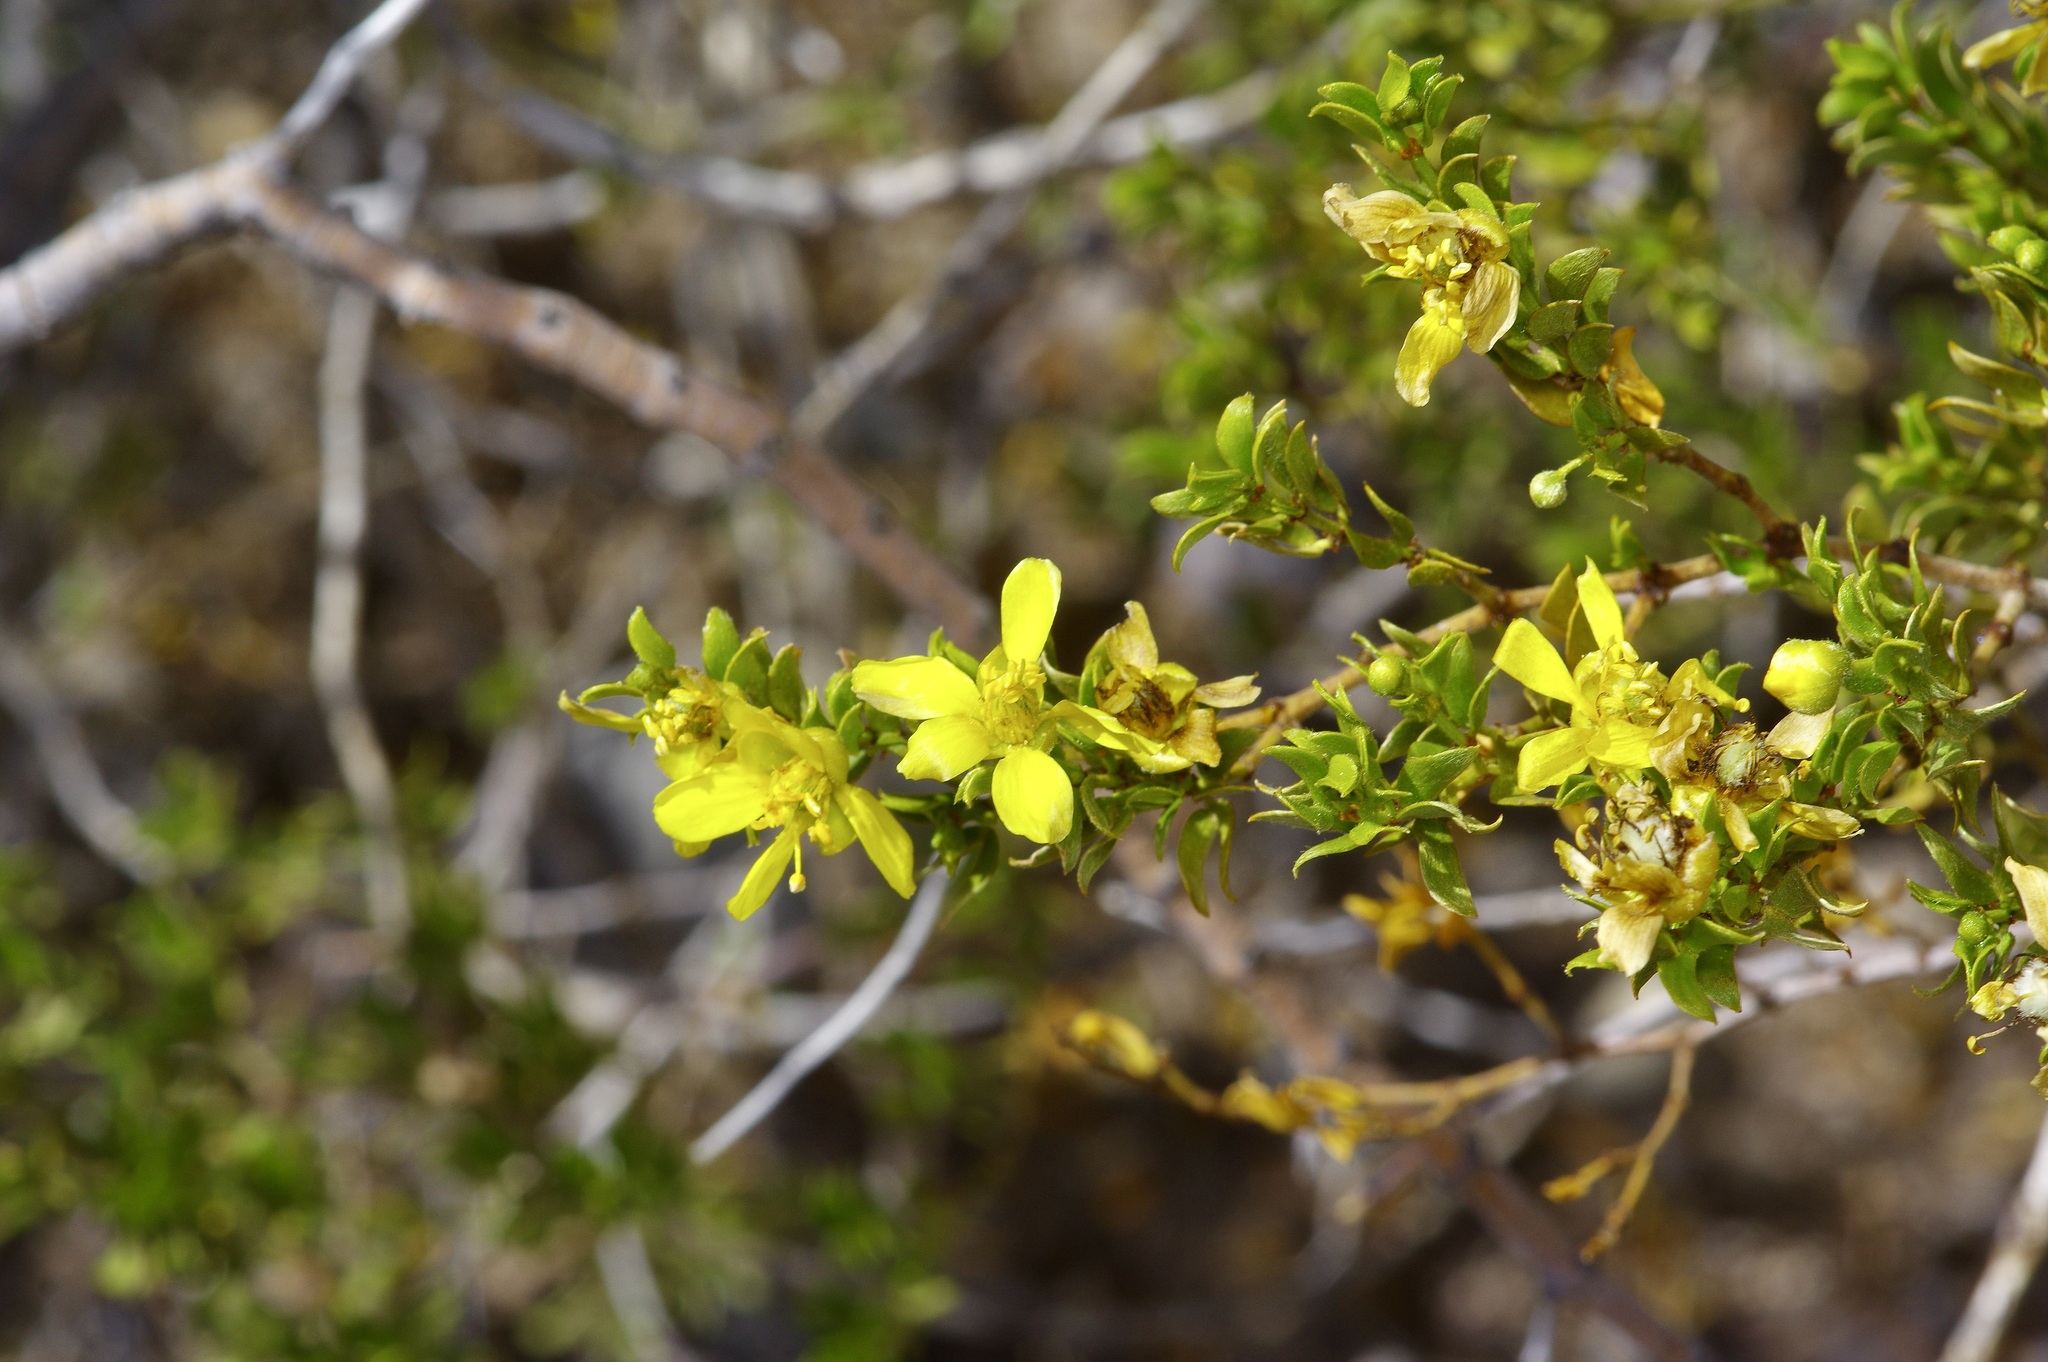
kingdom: Plantae
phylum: Tracheophyta
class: Magnoliopsida
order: Zygophyllales
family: Zygophyllaceae
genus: Larrea
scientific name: Larrea tridentata
